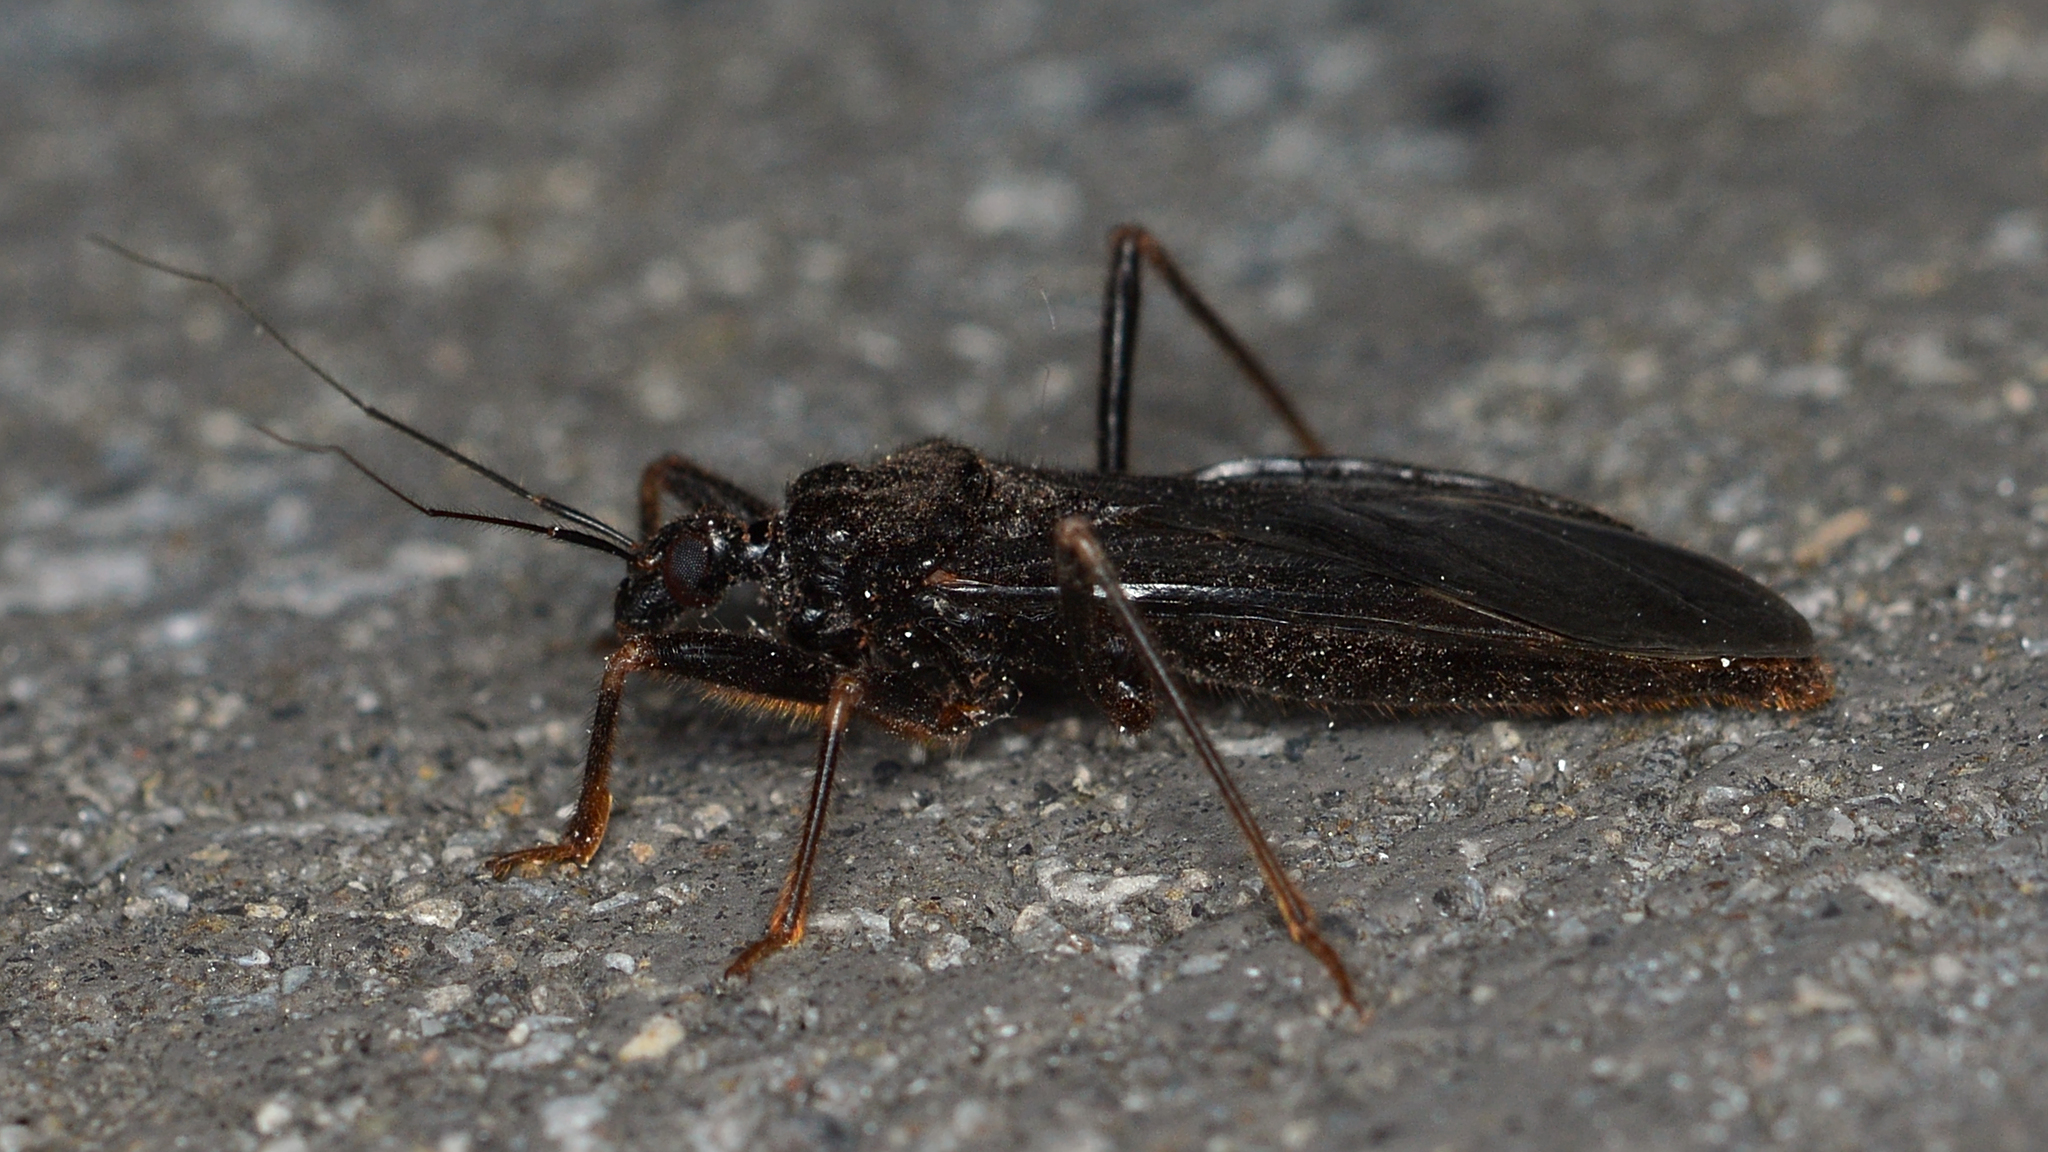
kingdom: Animalia
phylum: Arthropoda
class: Insecta
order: Hemiptera
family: Reduviidae
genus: Reduvius
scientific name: Reduvius personatus
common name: Masked hunter
